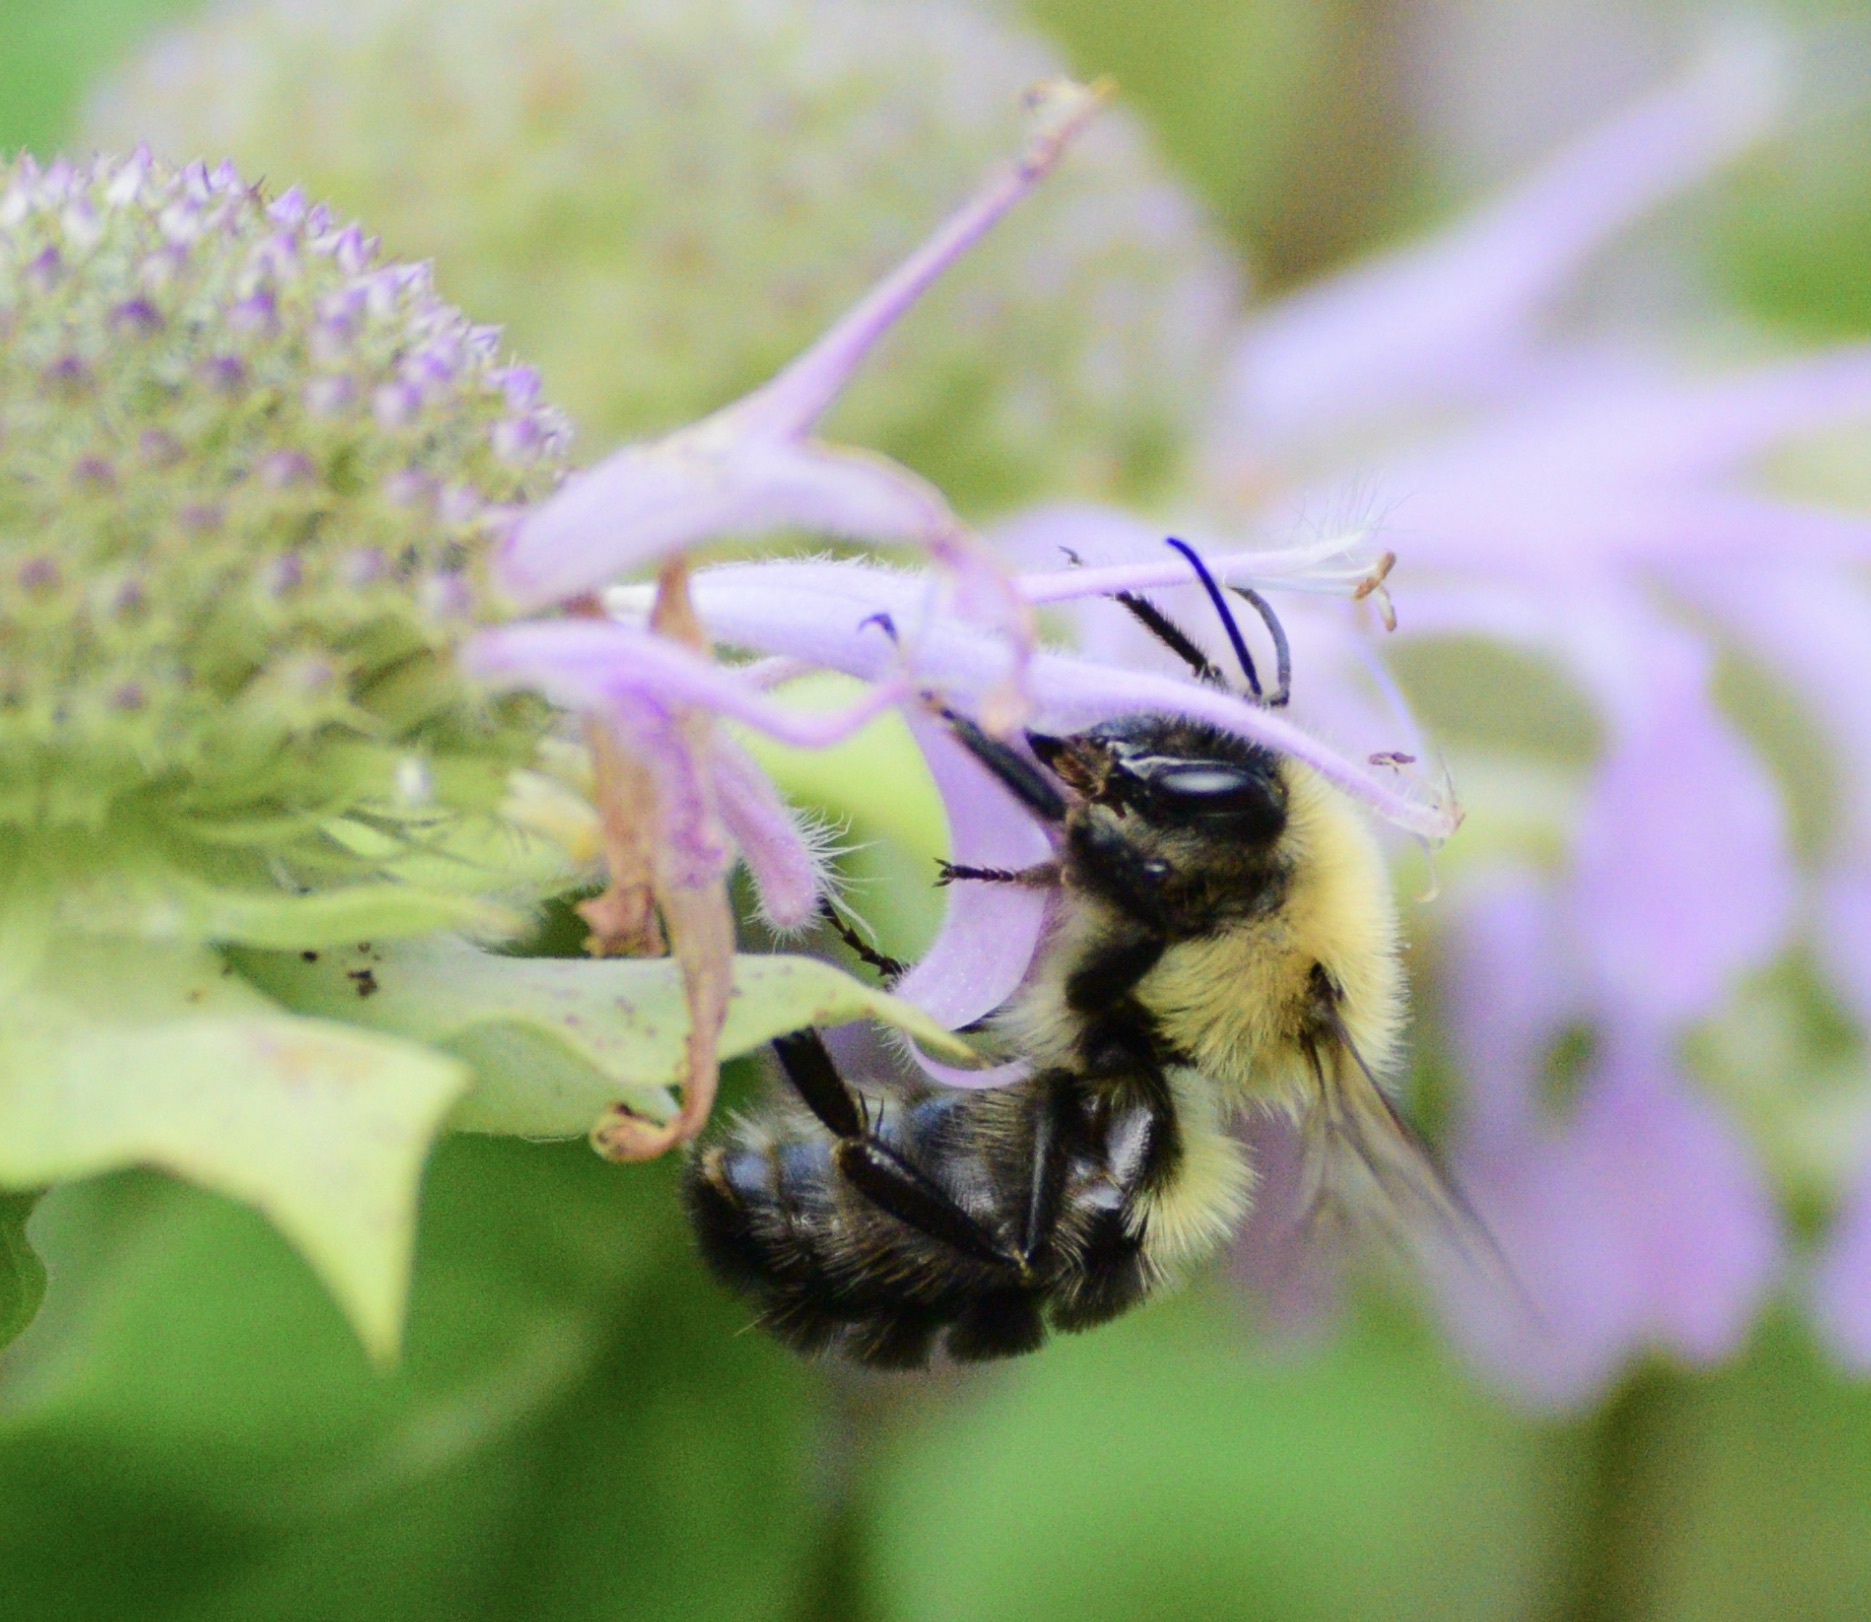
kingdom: Animalia
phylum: Arthropoda
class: Insecta
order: Hymenoptera
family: Apidae
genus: Bombus
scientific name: Bombus bimaculatus
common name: Two-spotted bumble bee
